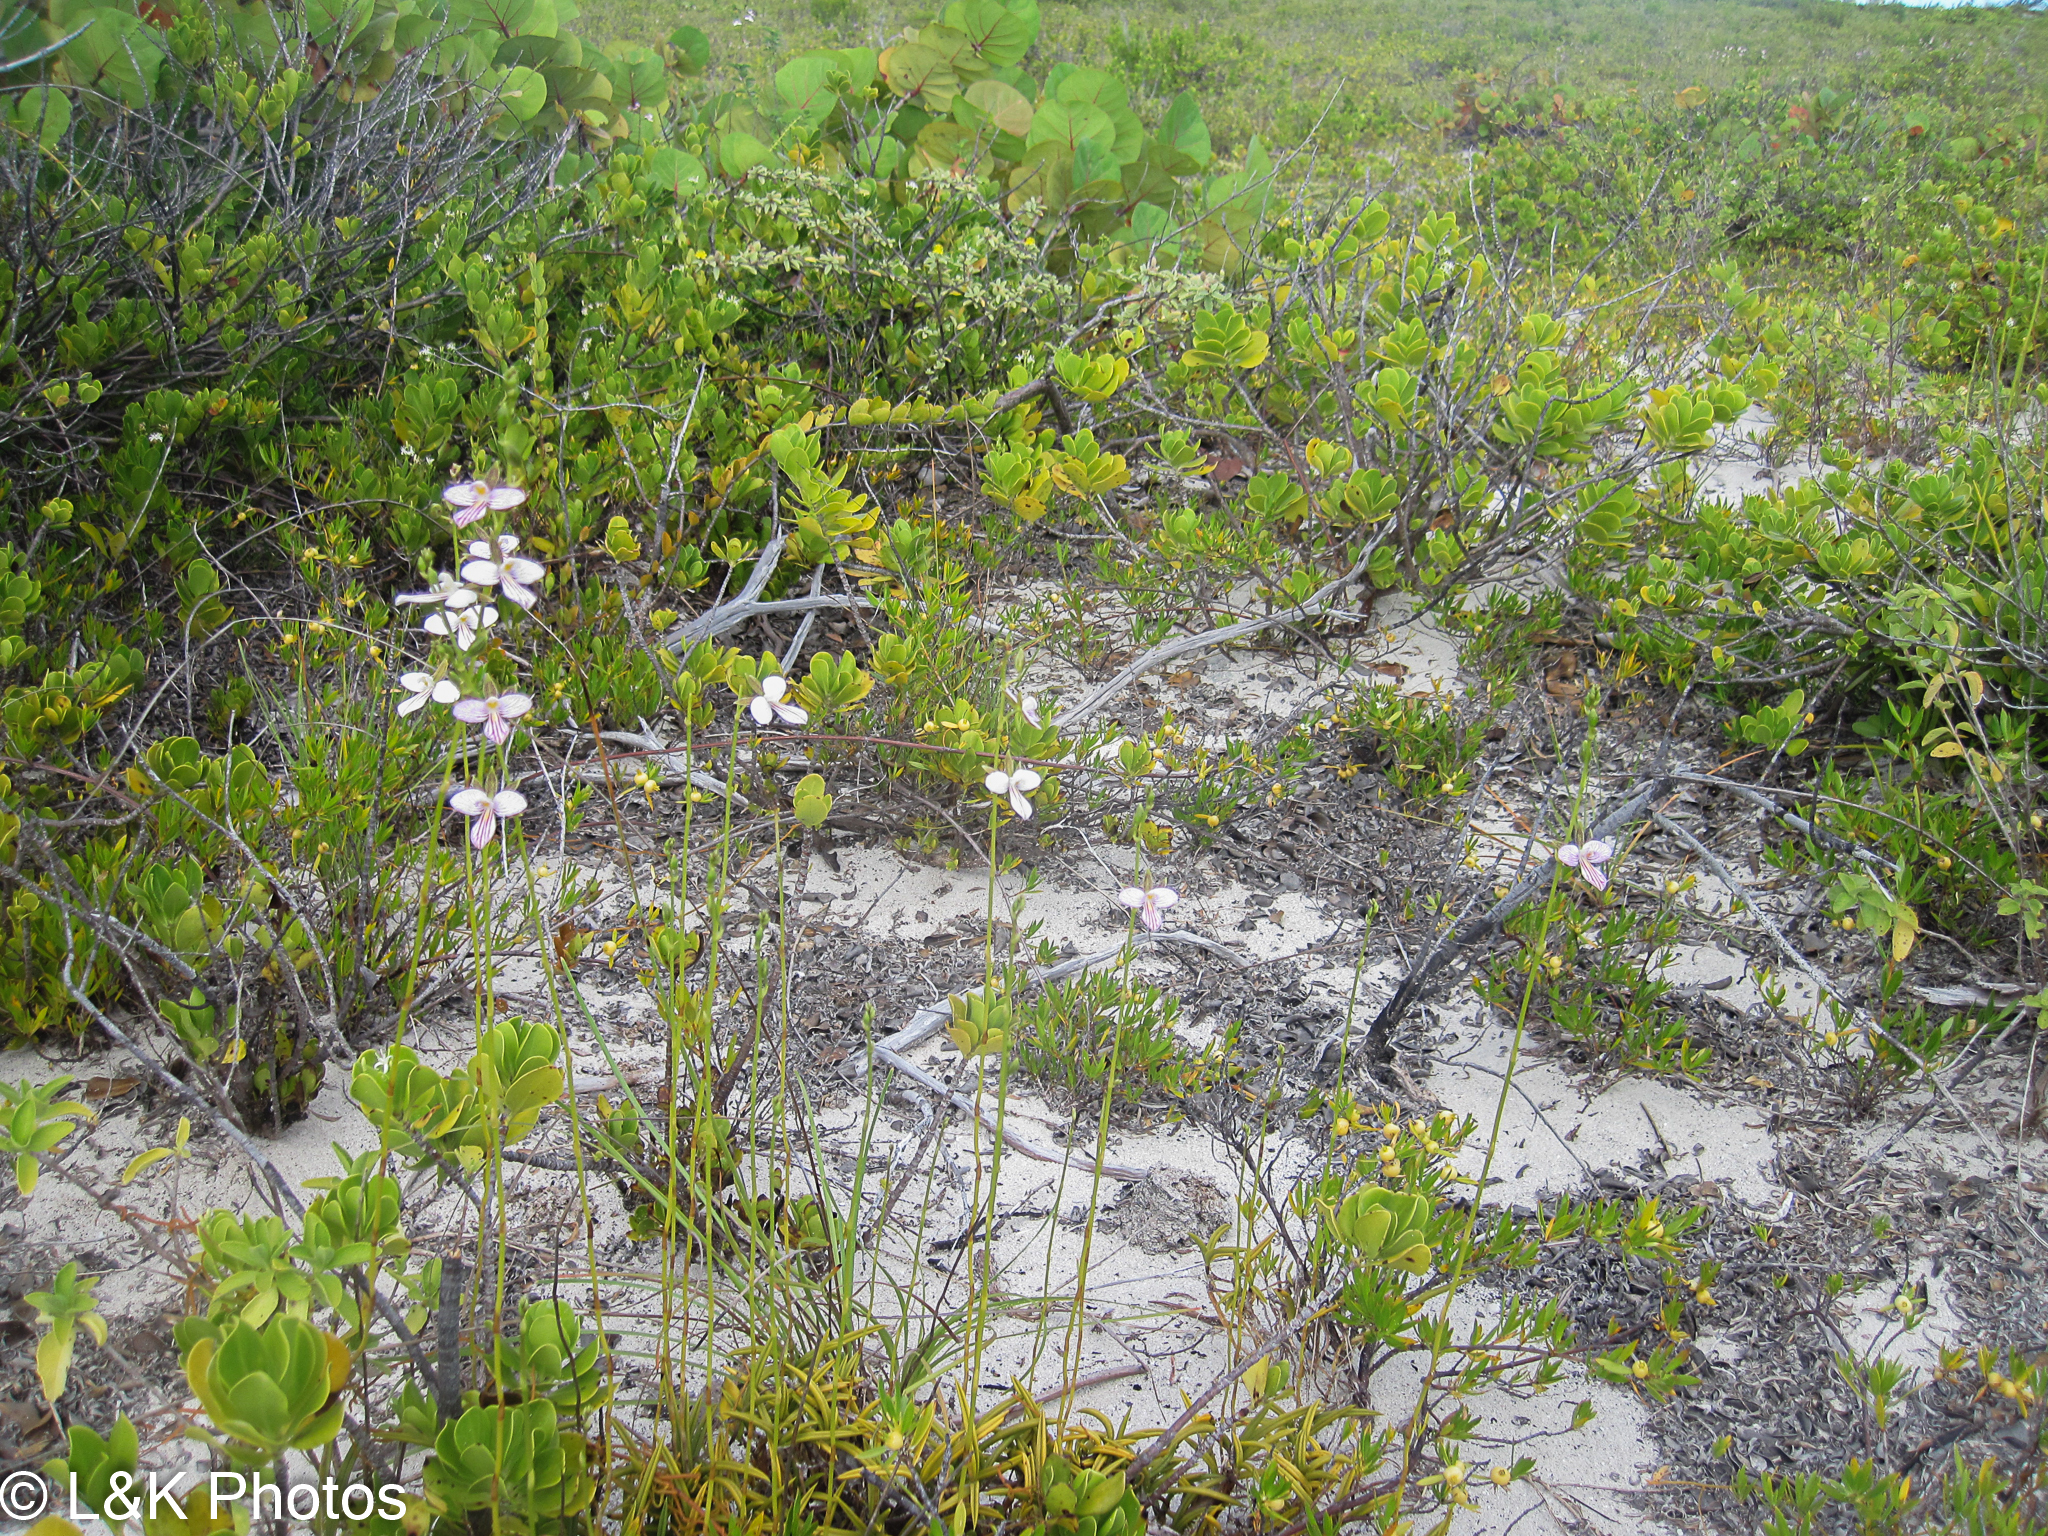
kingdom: Plantae
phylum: Tracheophyta
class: Liliopsida
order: Asparagales
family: Orchidaceae
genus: Tetramicra
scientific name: Tetramicra canaliculata
